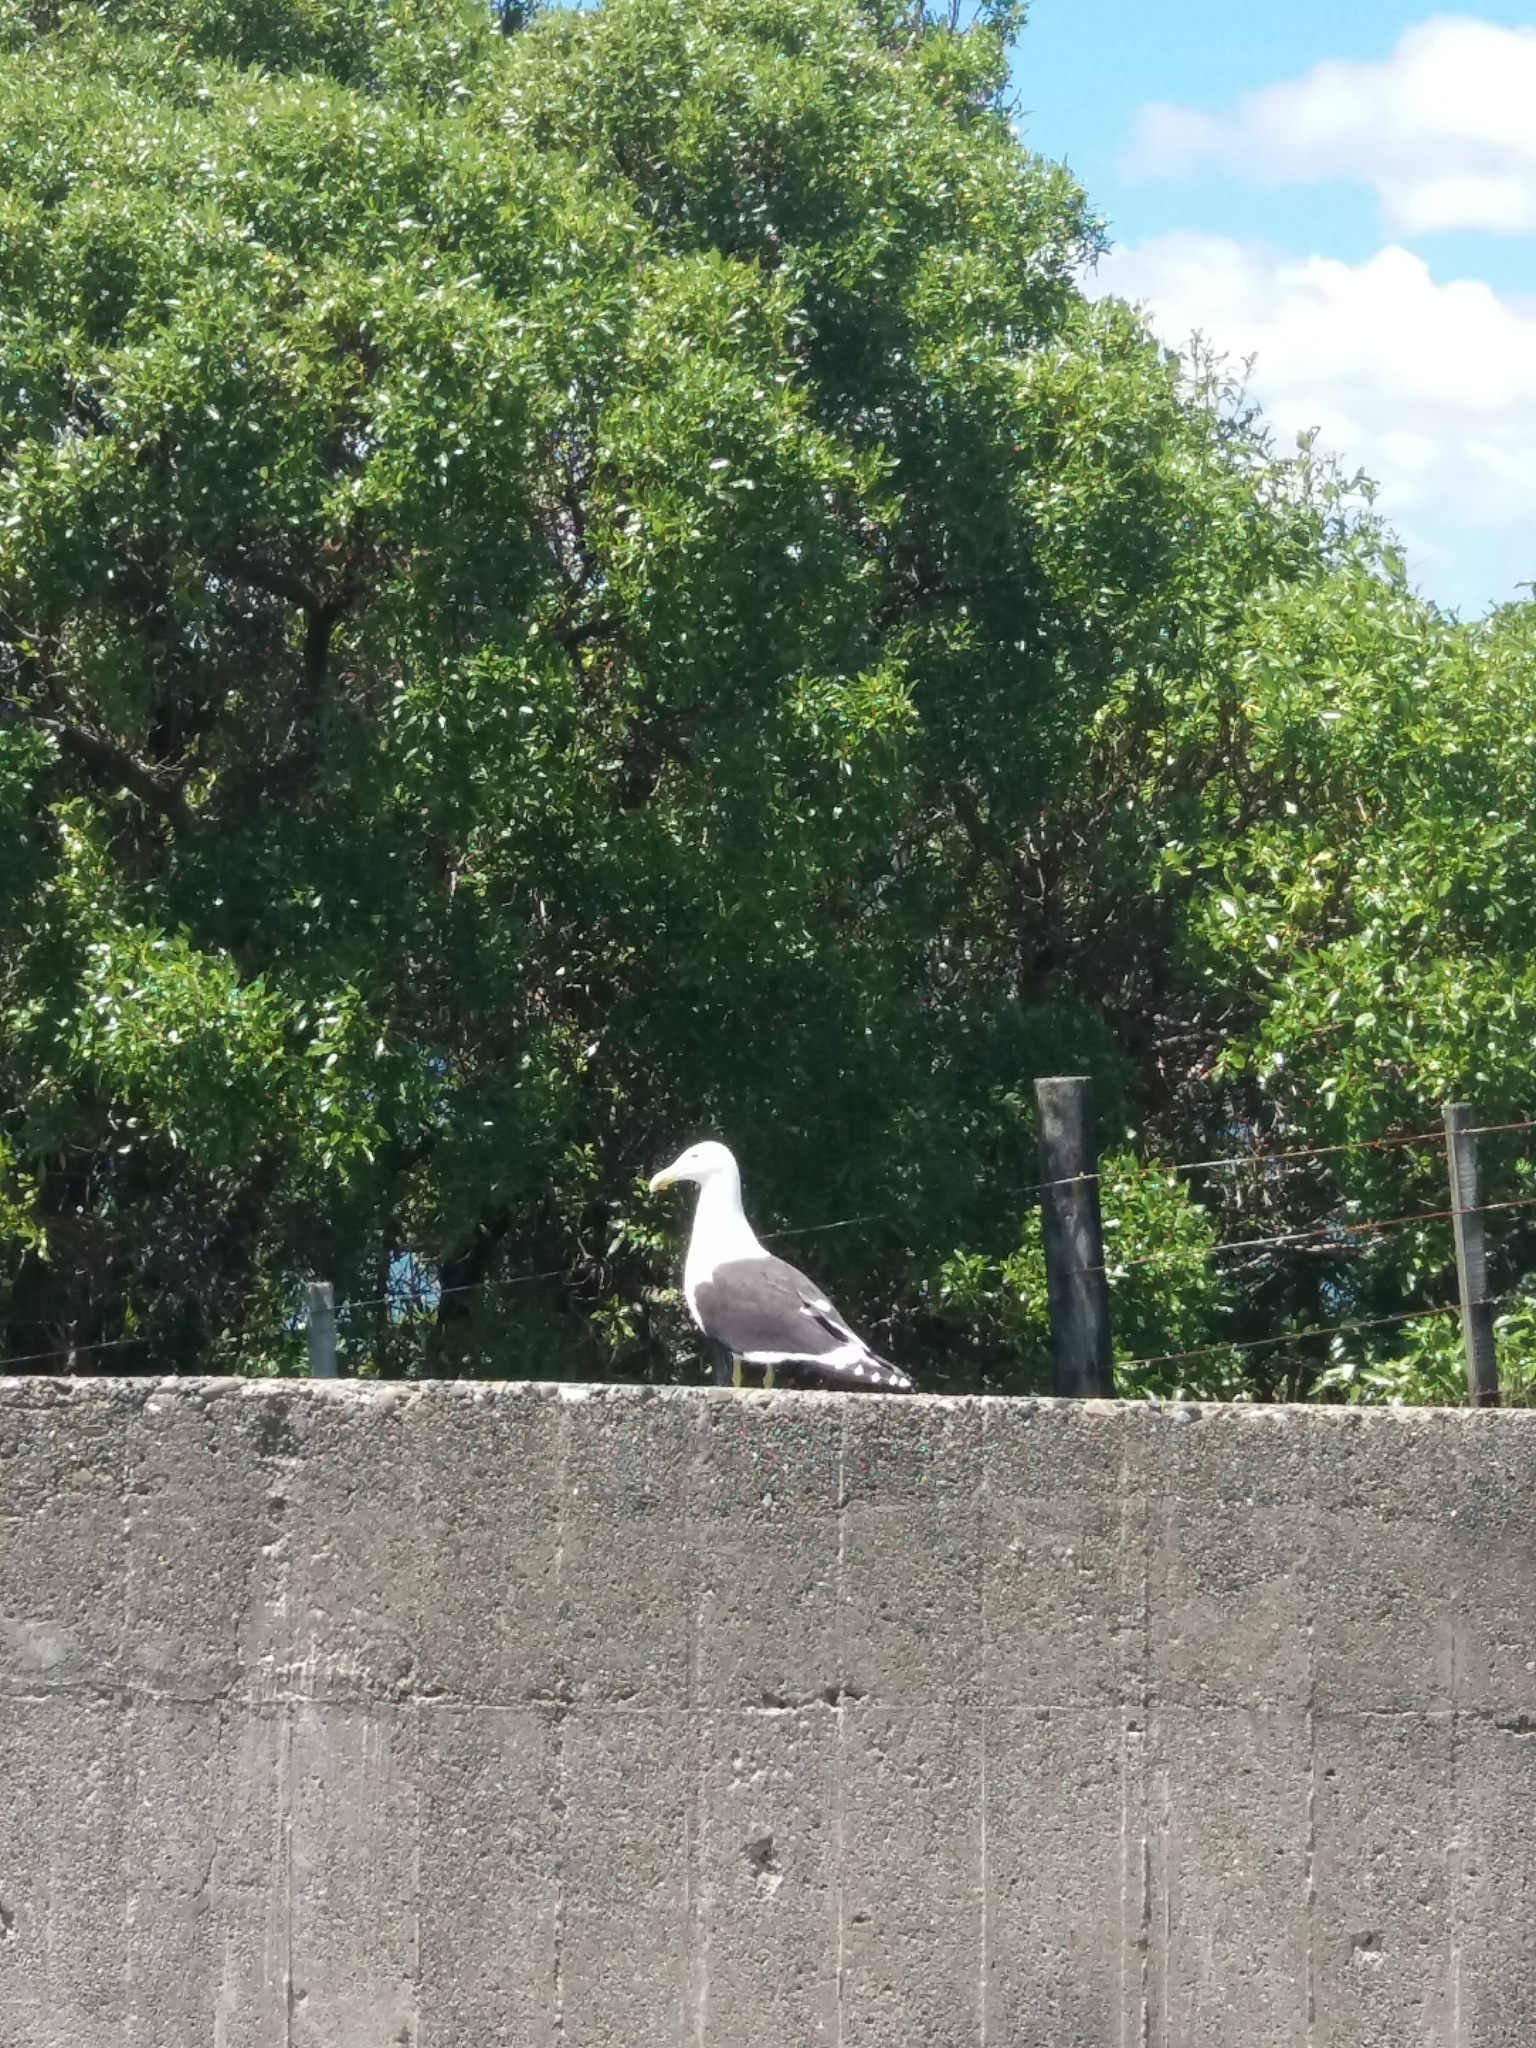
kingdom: Animalia
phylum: Chordata
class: Aves
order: Charadriiformes
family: Laridae
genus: Larus
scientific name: Larus dominicanus
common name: Kelp gull
